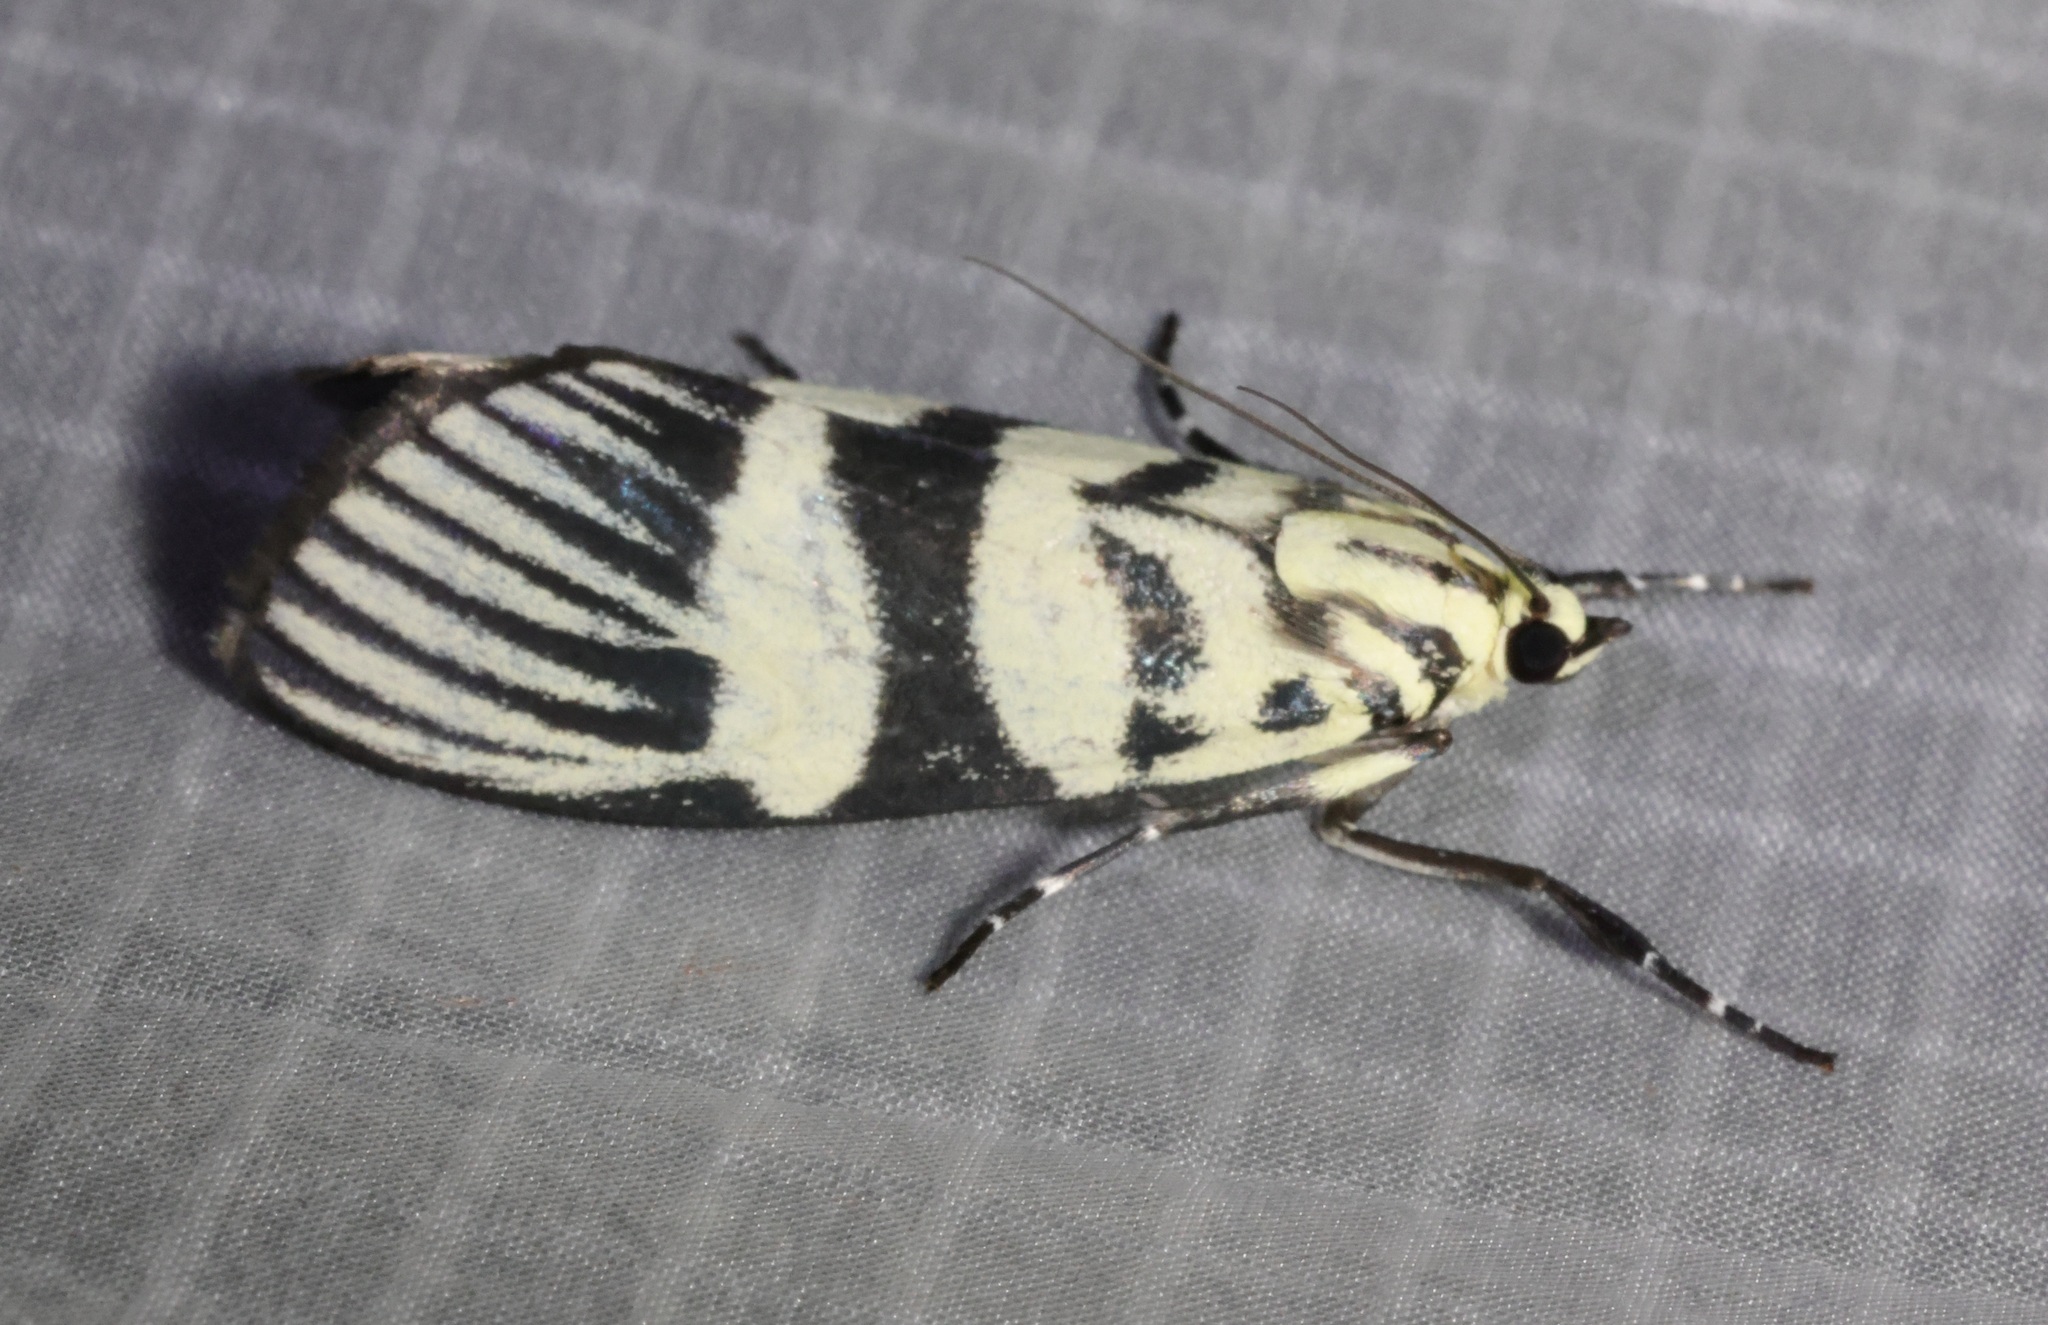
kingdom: Animalia
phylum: Arthropoda
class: Insecta
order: Lepidoptera
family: Crambidae
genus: Heortia
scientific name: Heortia vitessoides
